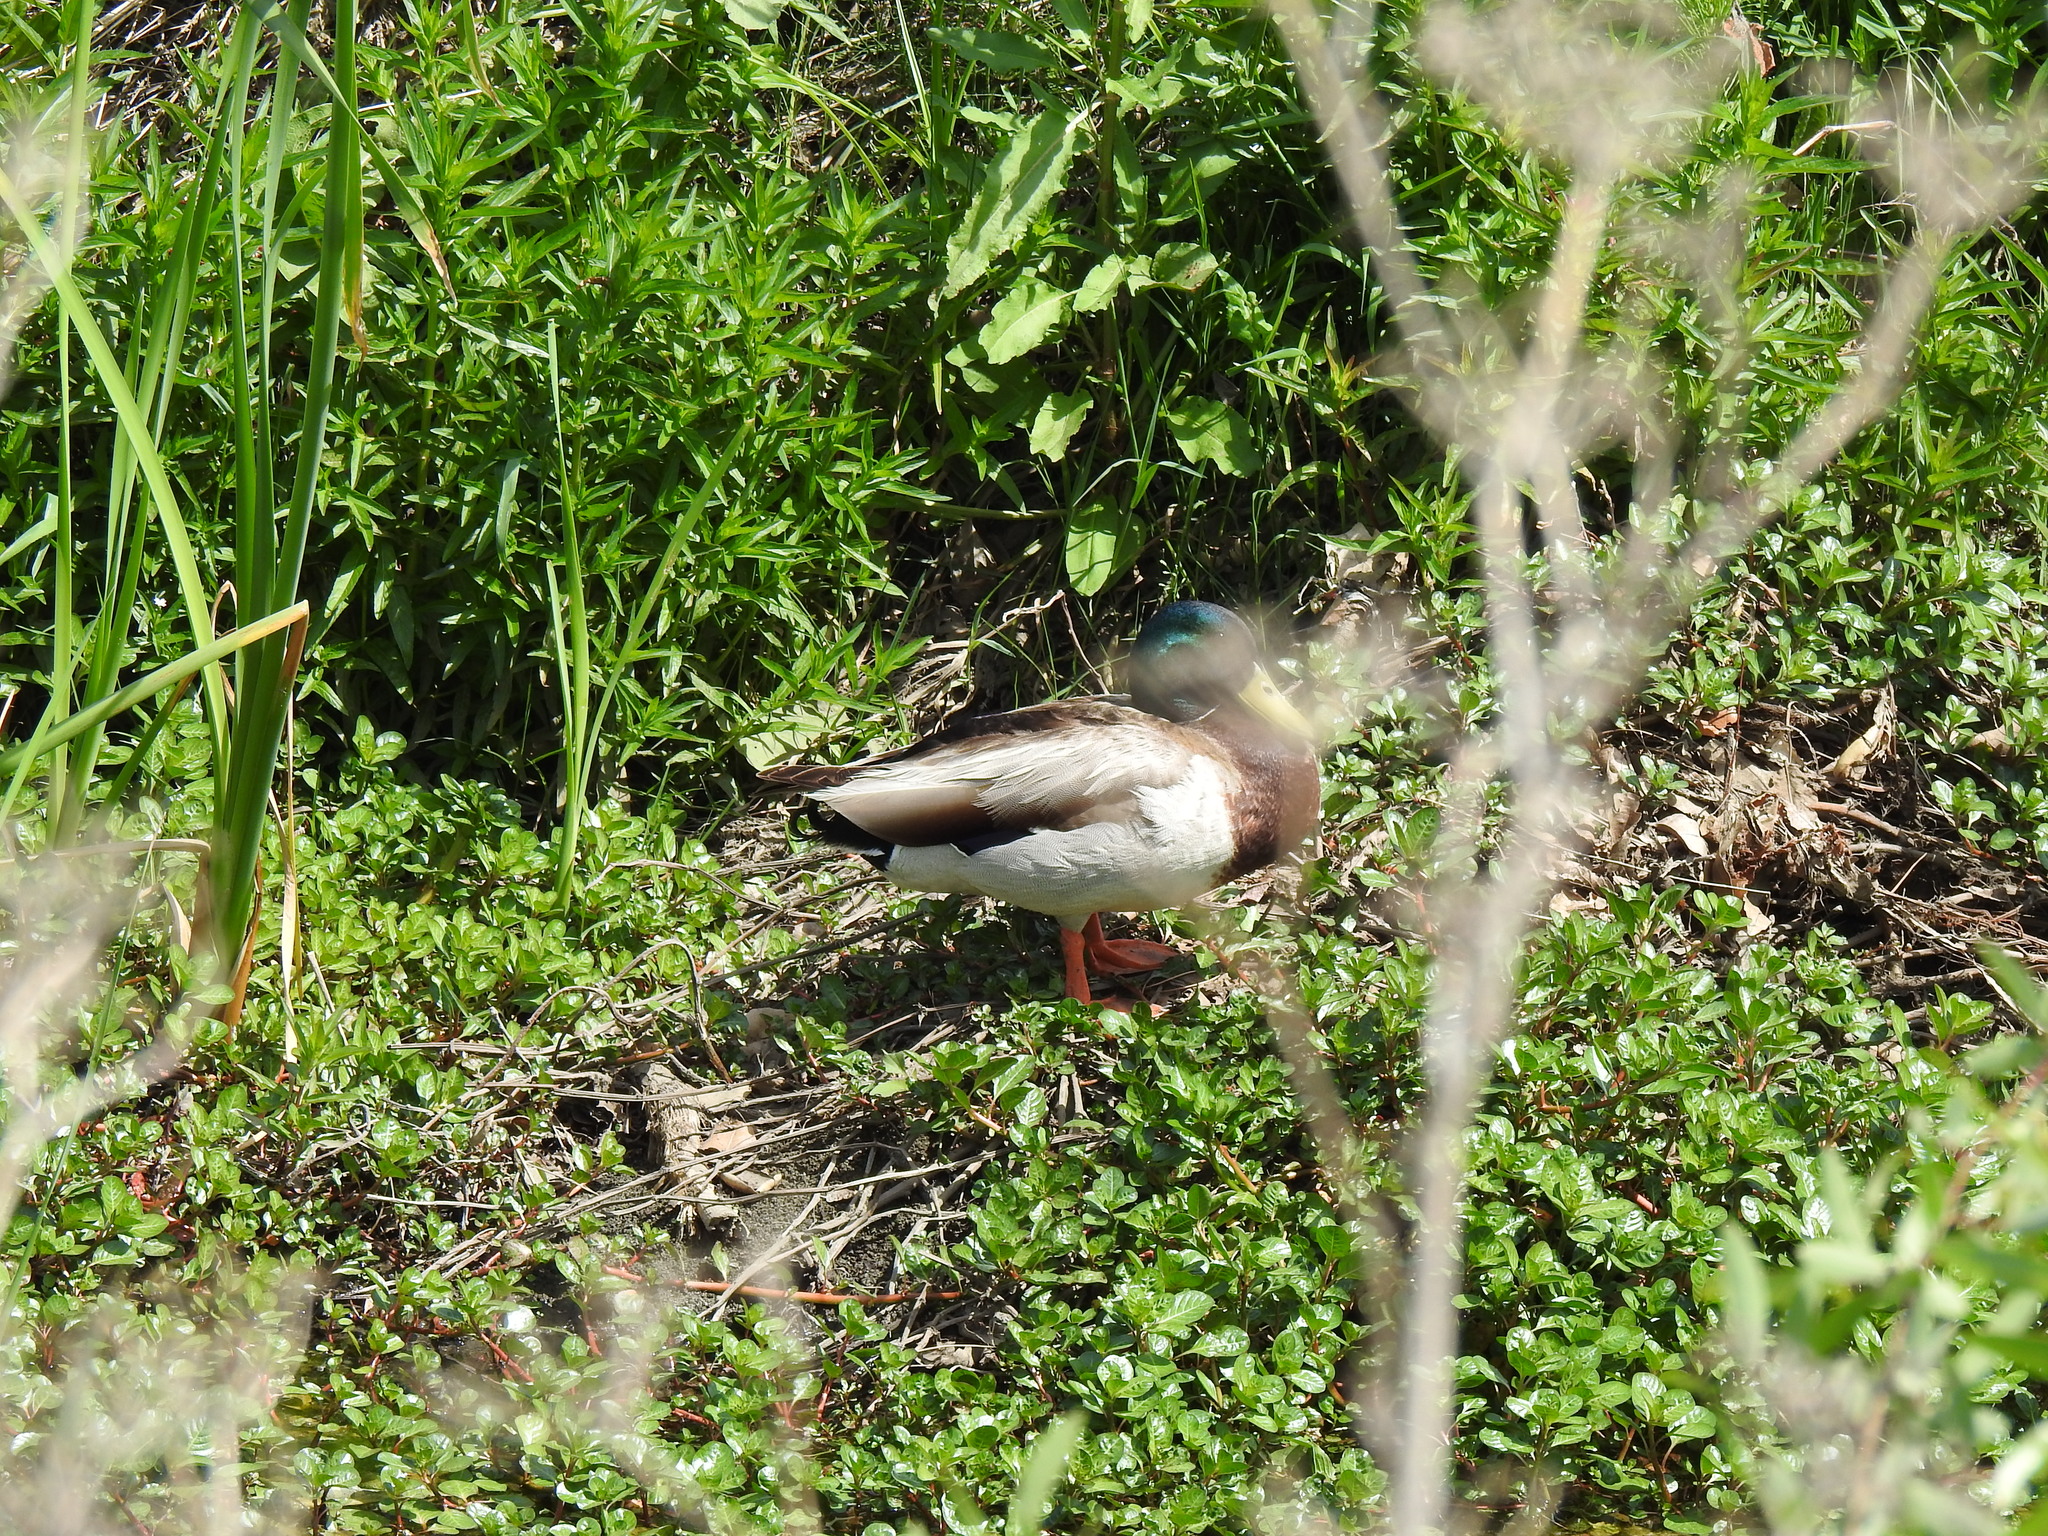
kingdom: Animalia
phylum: Chordata
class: Aves
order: Anseriformes
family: Anatidae
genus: Anas
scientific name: Anas platyrhynchos
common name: Mallard
